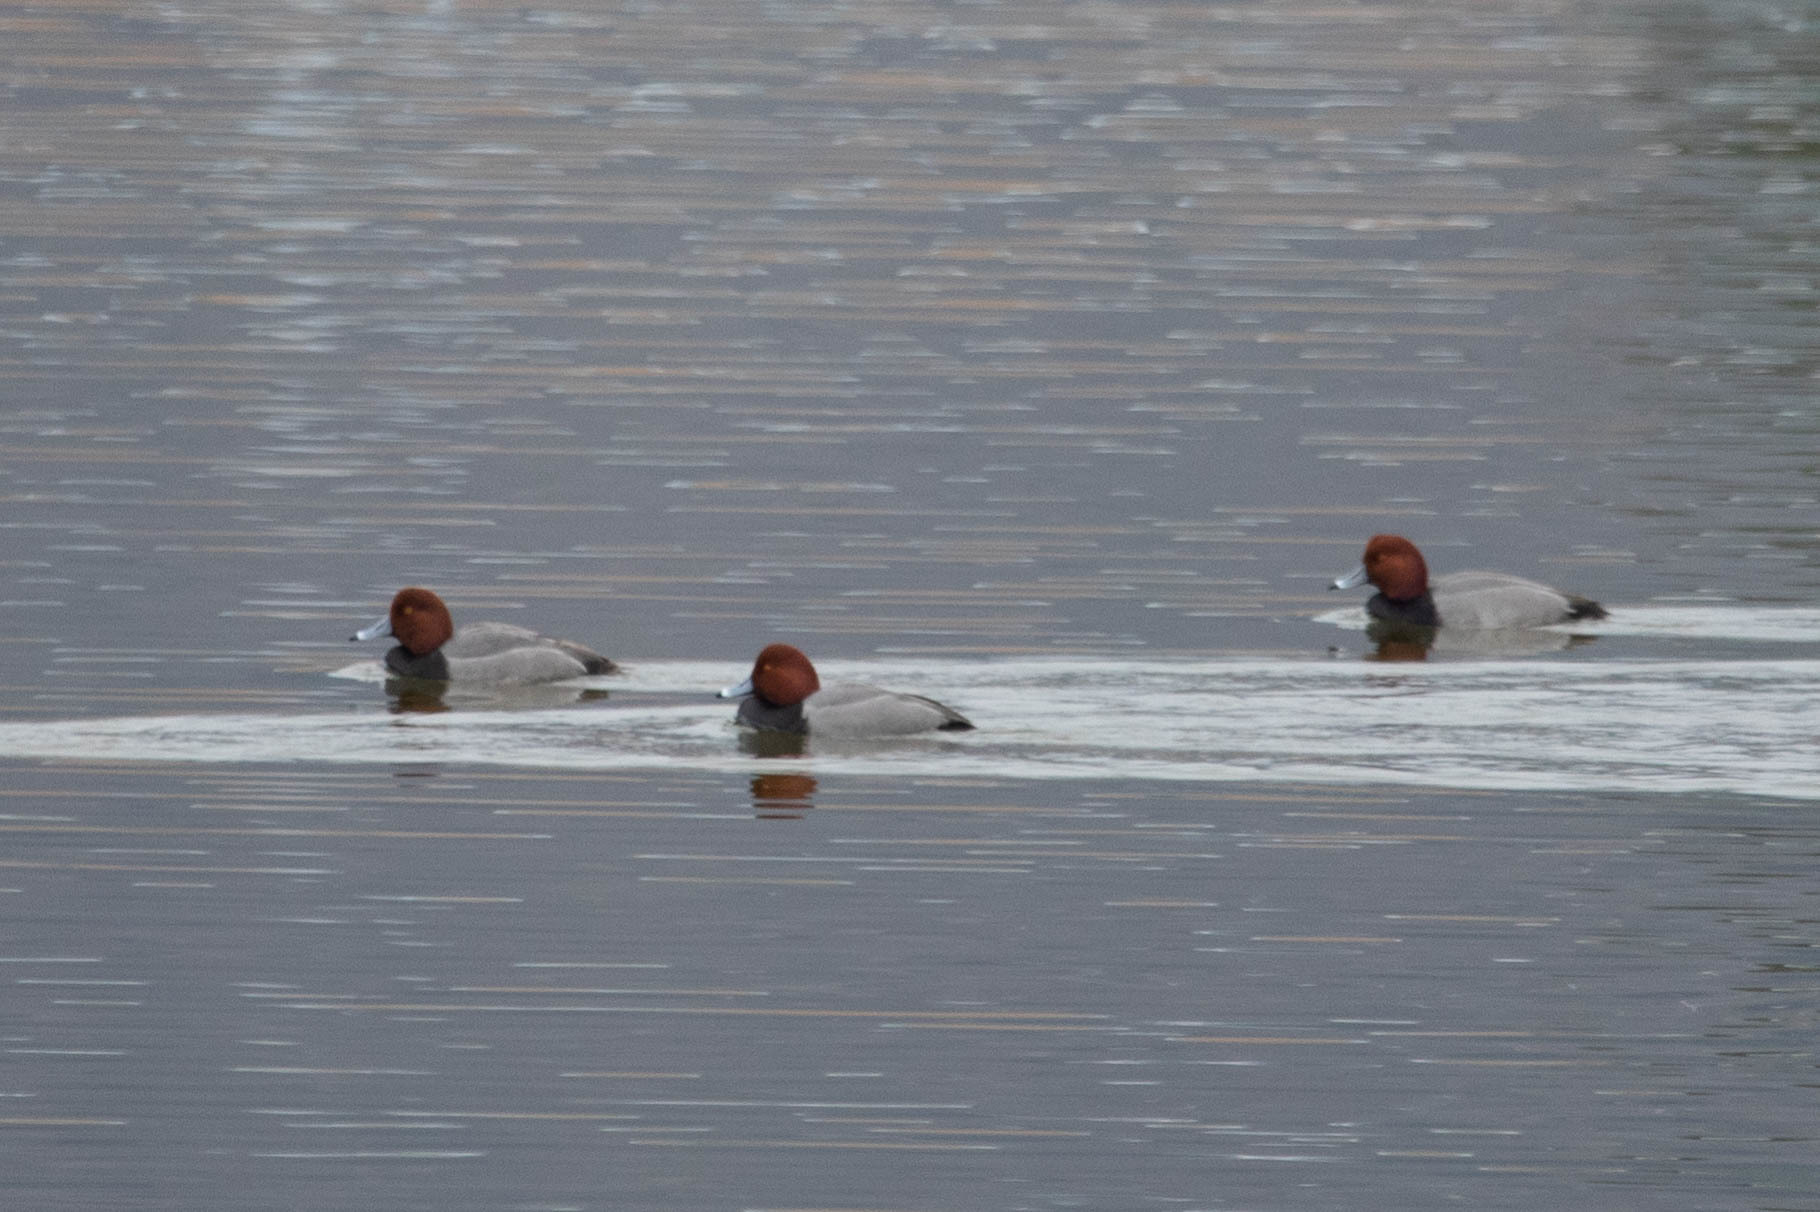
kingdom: Animalia
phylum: Chordata
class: Aves
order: Anseriformes
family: Anatidae
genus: Aythya
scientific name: Aythya americana
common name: Redhead
